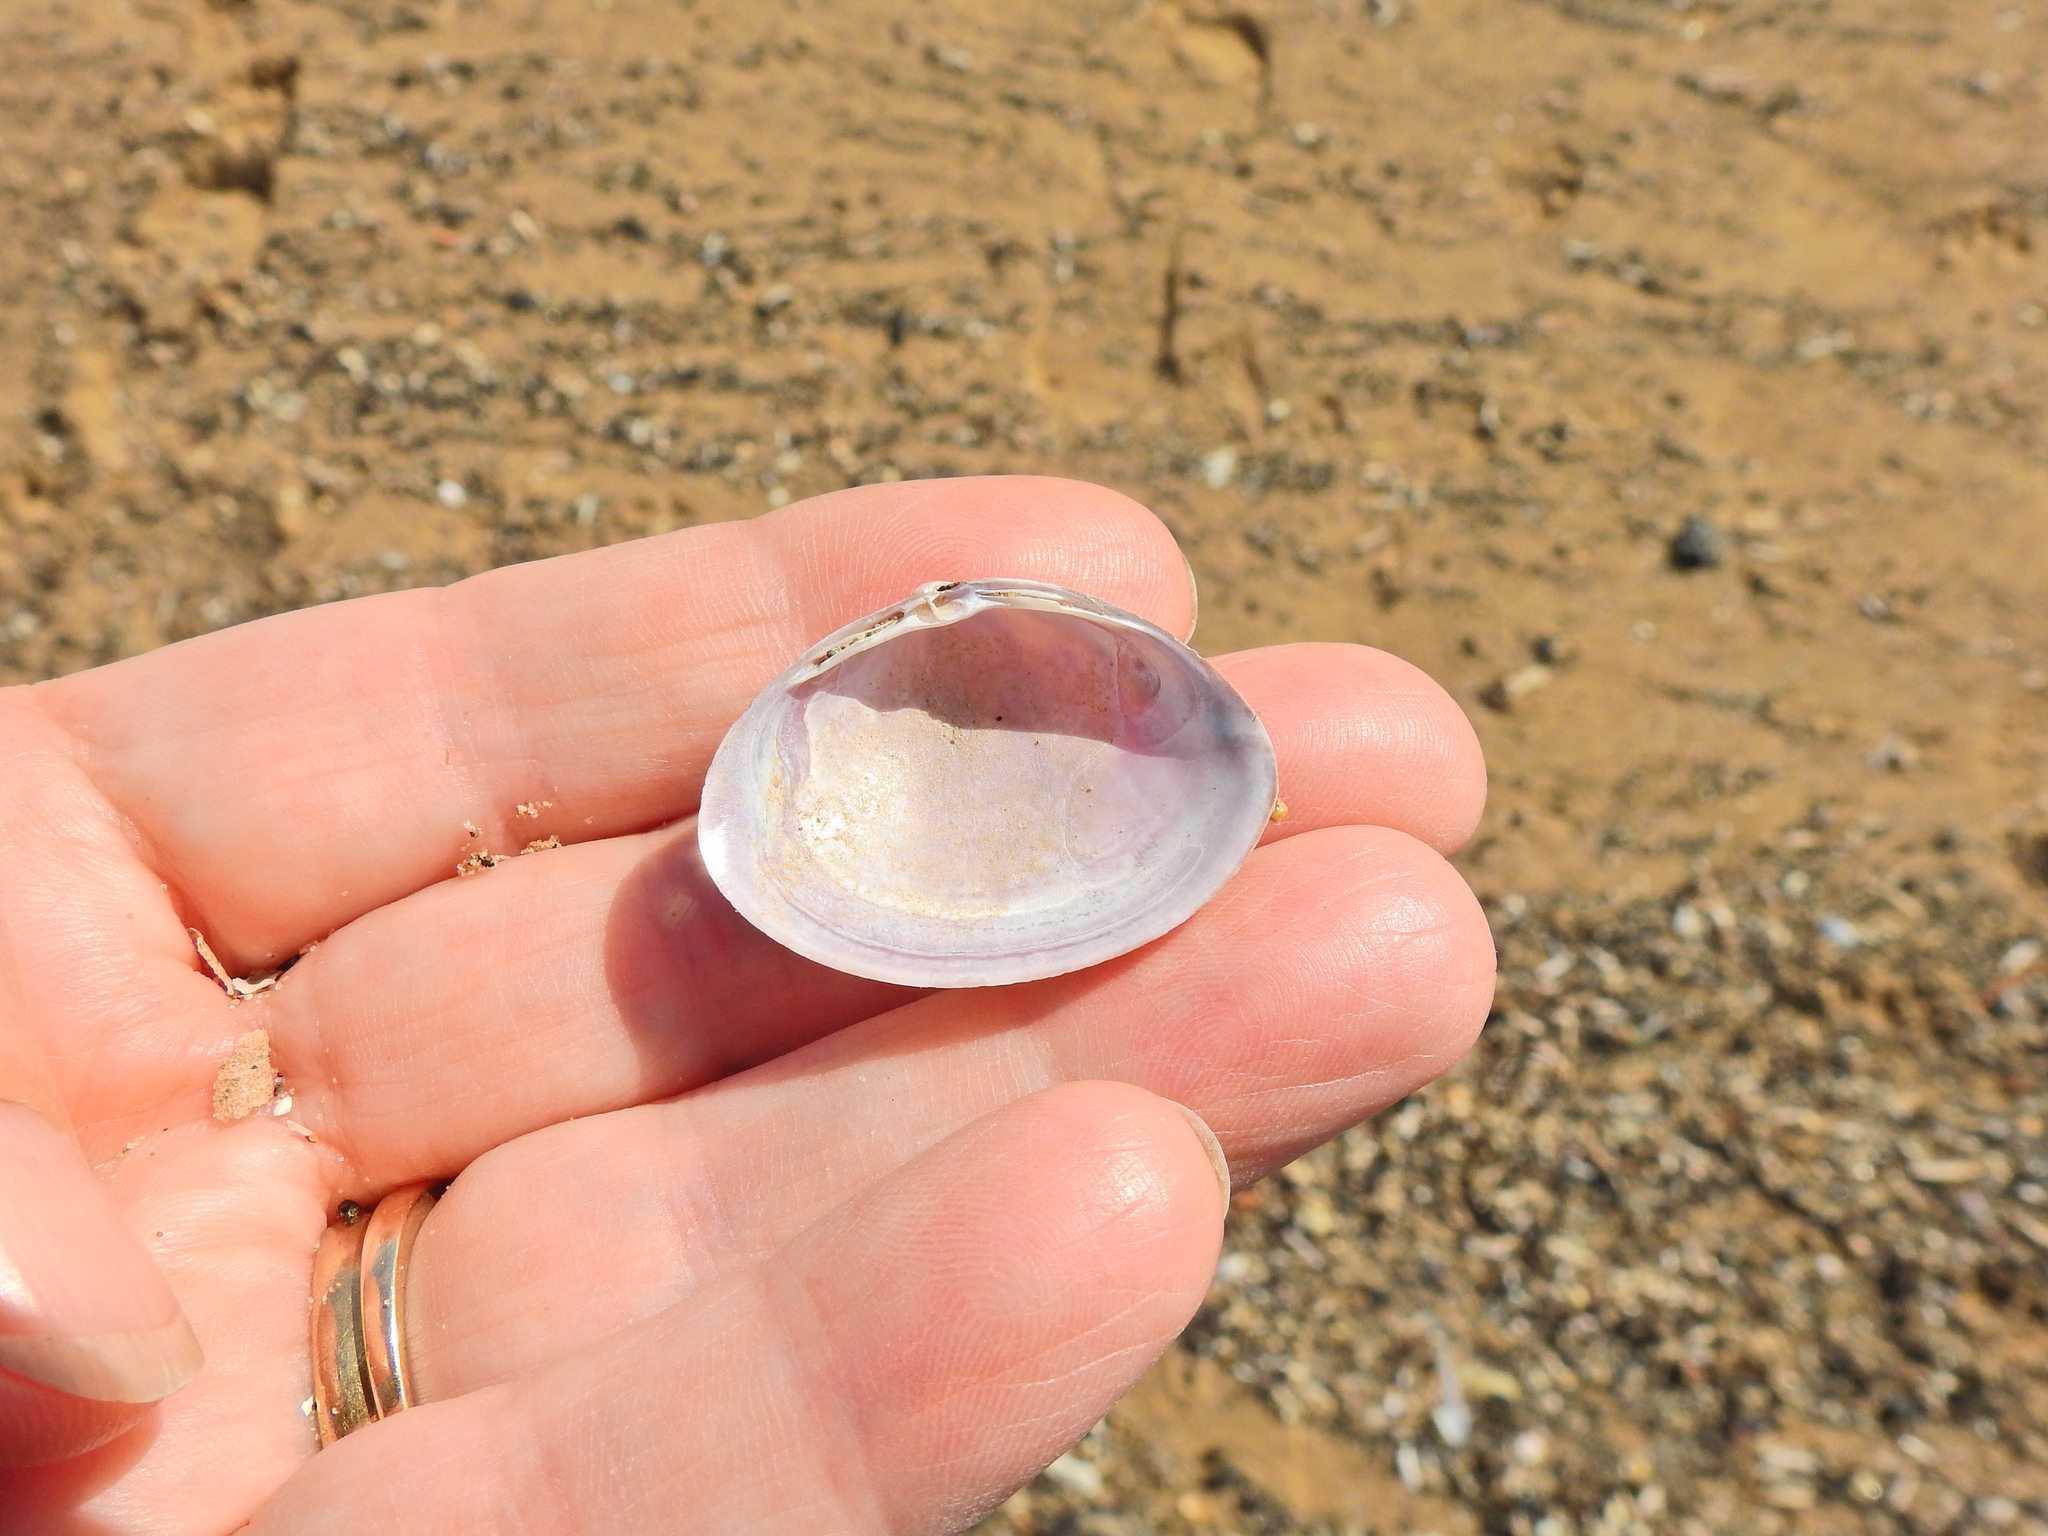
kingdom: Animalia
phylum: Mollusca
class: Bivalvia
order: Venerida
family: Mactridae
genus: Mactra
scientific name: Mactra stultorum
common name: Rayed trough shell
